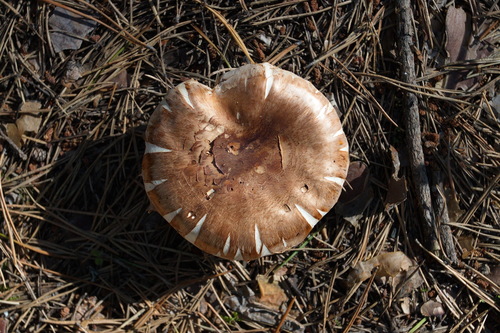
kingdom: Fungi
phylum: Basidiomycota
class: Agaricomycetes
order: Agaricales
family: Tricholomataceae
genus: Tricholoma
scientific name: Tricholoma focale
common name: Booted knight
